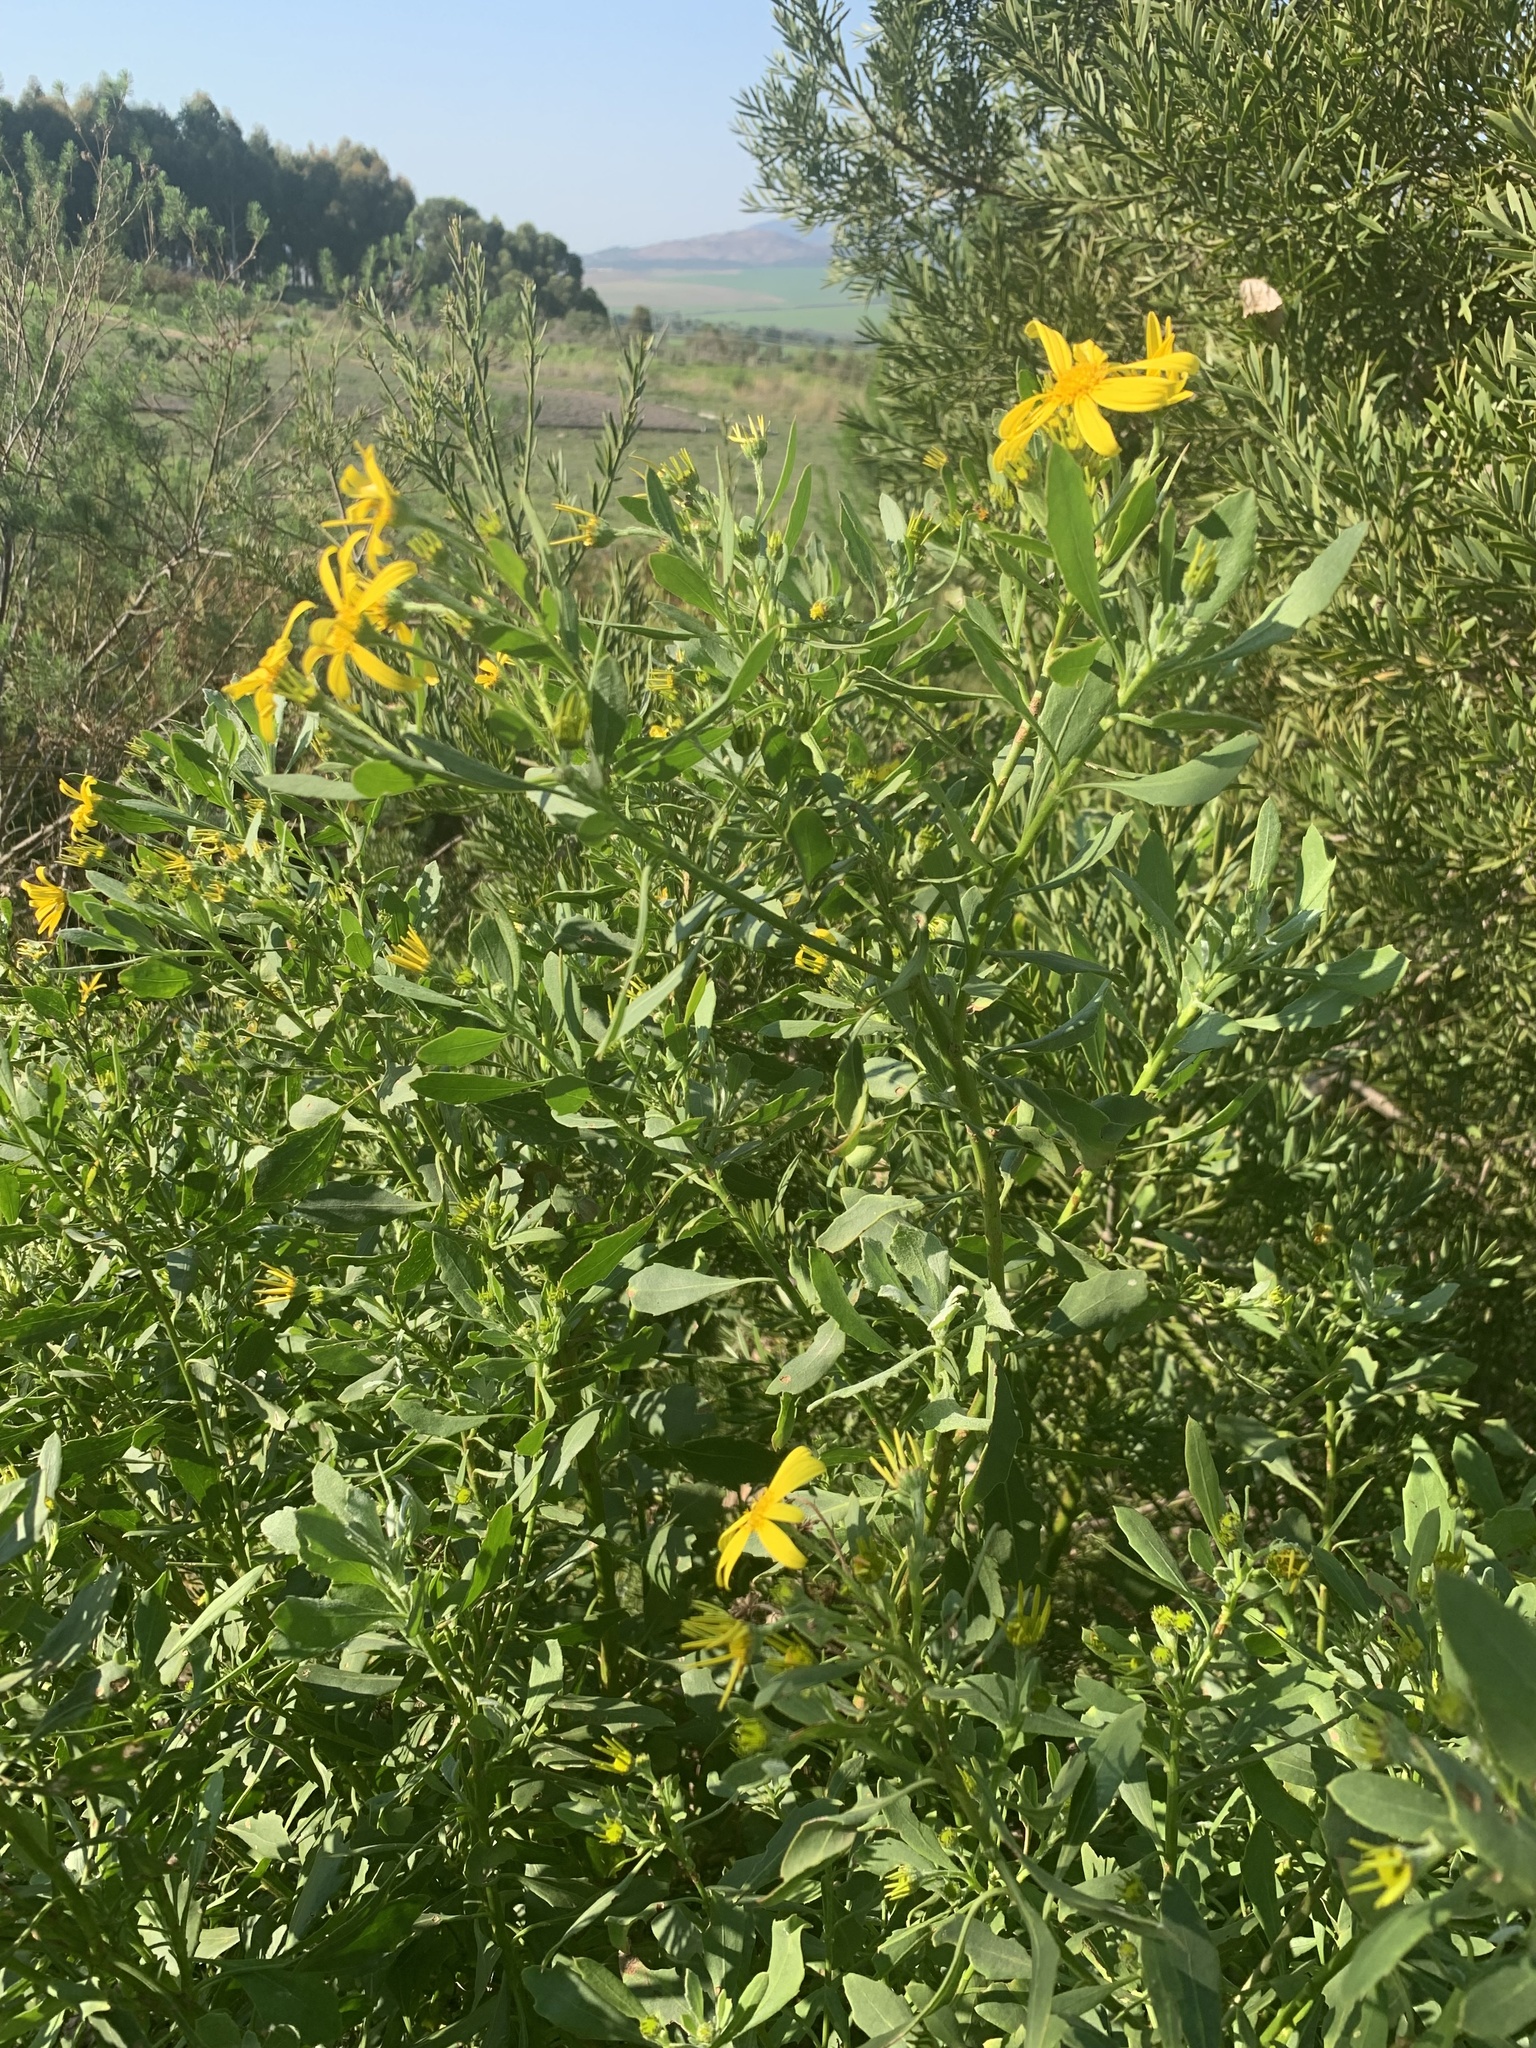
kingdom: Plantae
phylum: Tracheophyta
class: Magnoliopsida
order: Asterales
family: Asteraceae
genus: Osteospermum
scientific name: Osteospermum moniliferum
